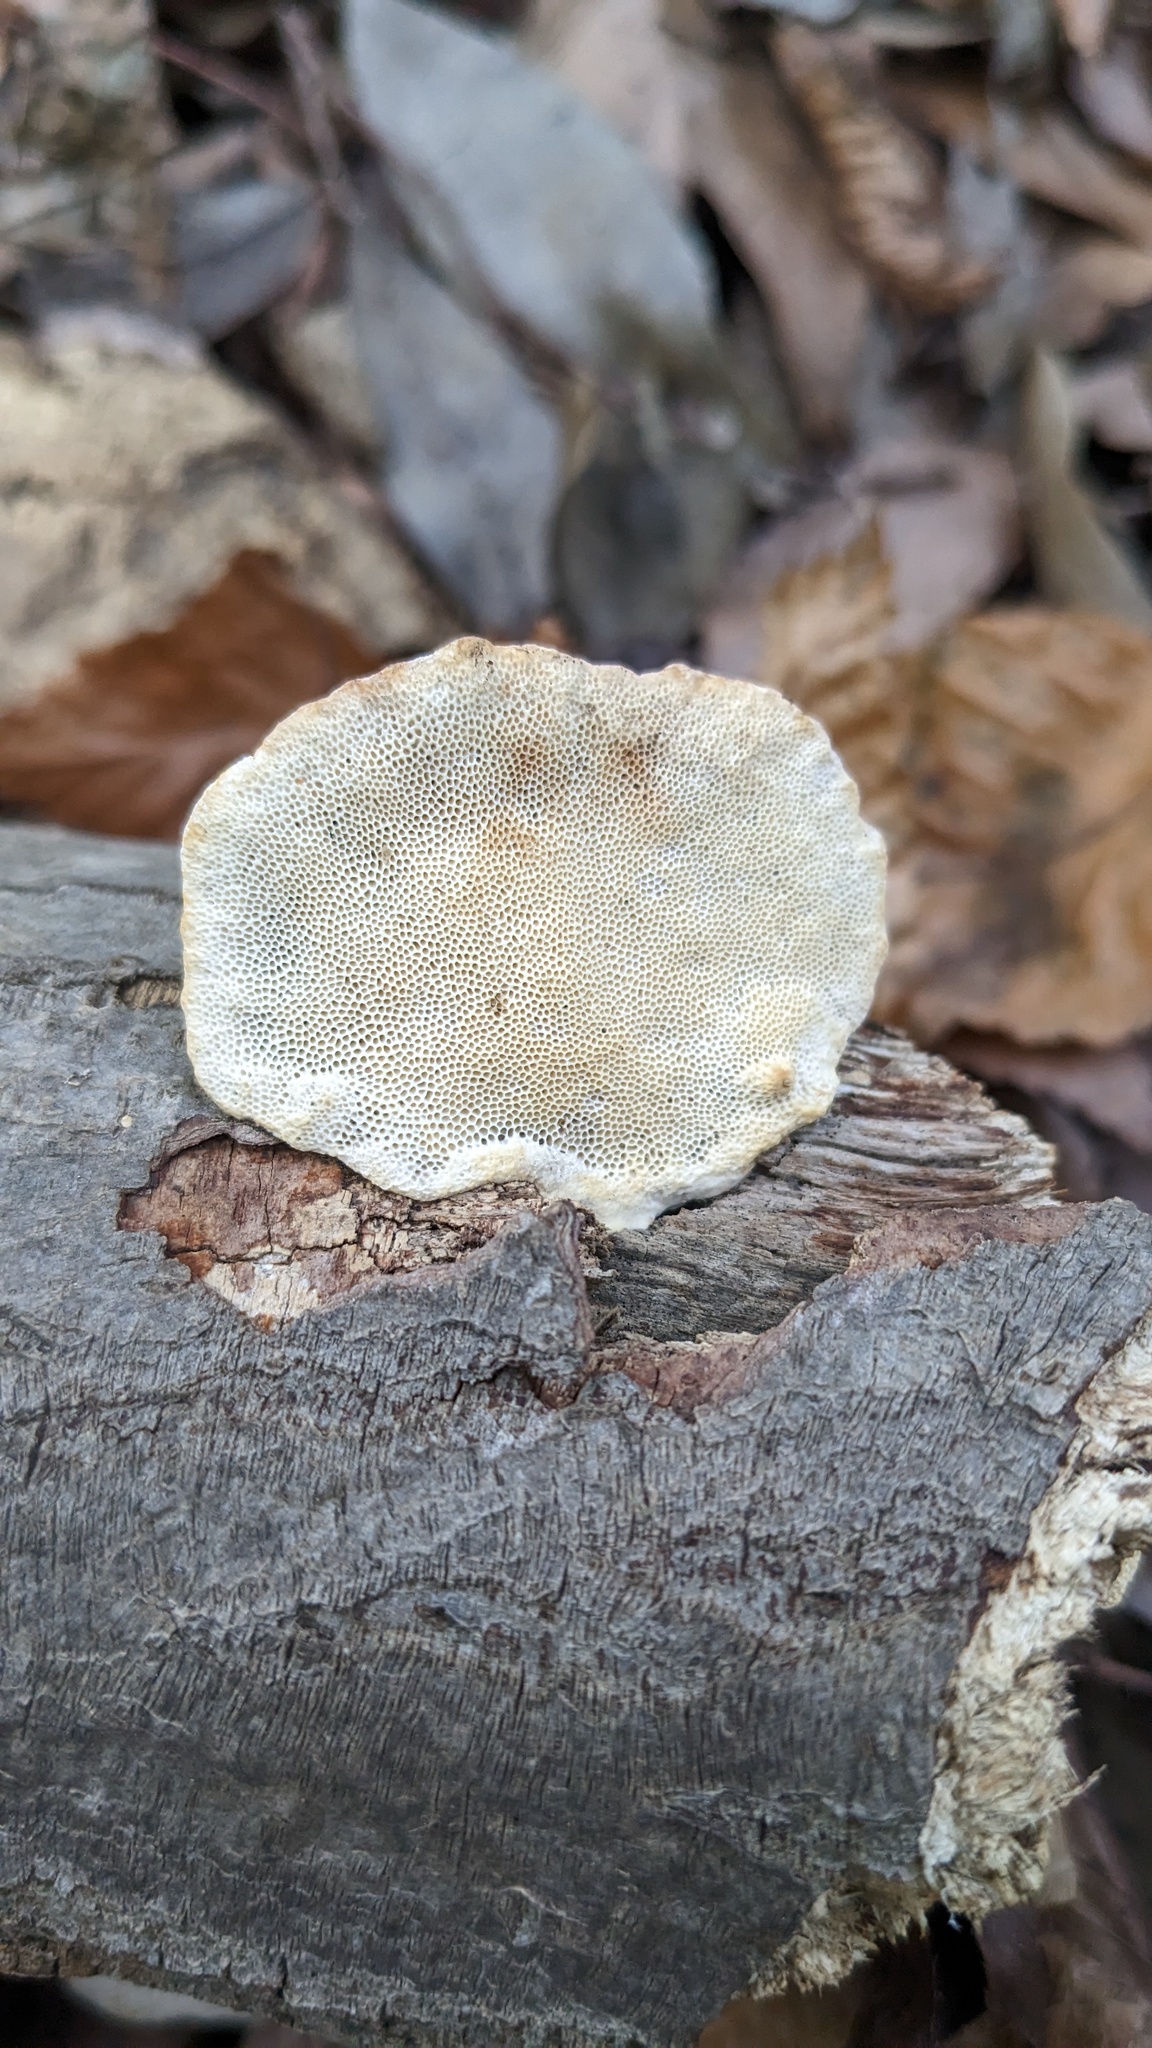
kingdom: Fungi
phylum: Basidiomycota
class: Agaricomycetes
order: Polyporales
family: Polyporaceae
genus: Trametes
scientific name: Trametes orientalis
